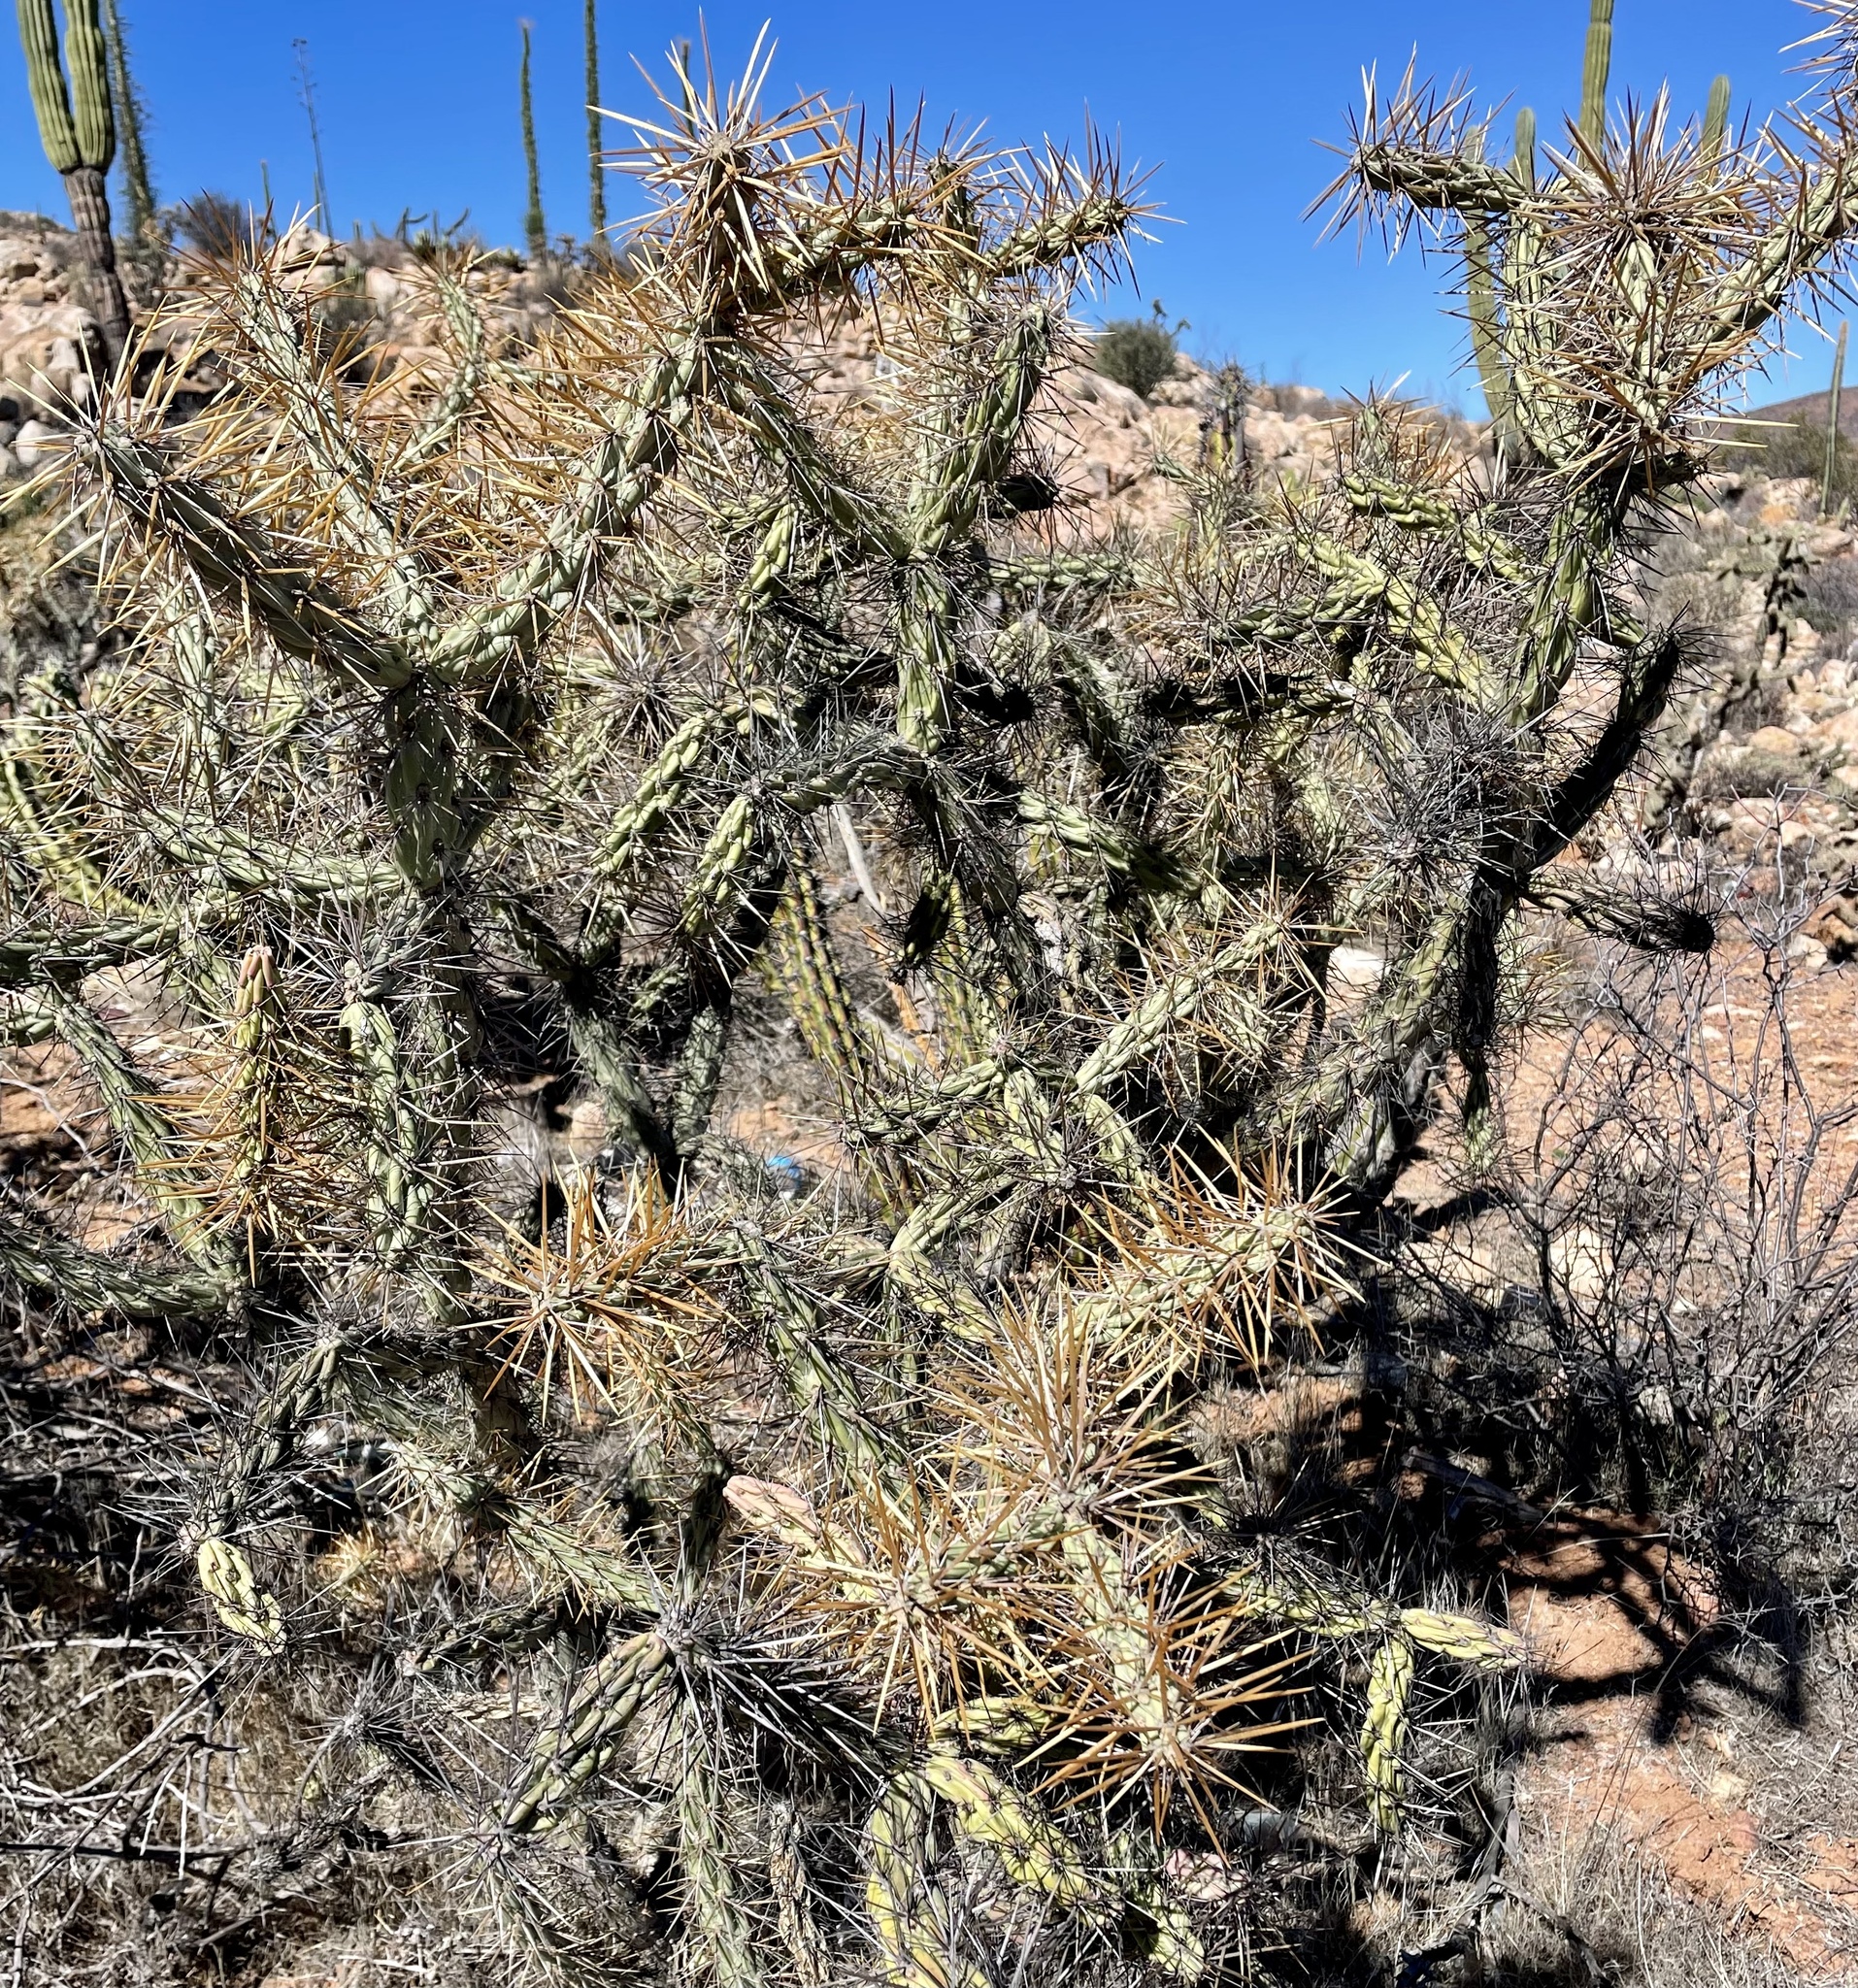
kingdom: Plantae
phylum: Tracheophyta
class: Magnoliopsida
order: Caryophyllales
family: Cactaceae
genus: Cylindropuntia
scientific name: Cylindropuntia molesta
